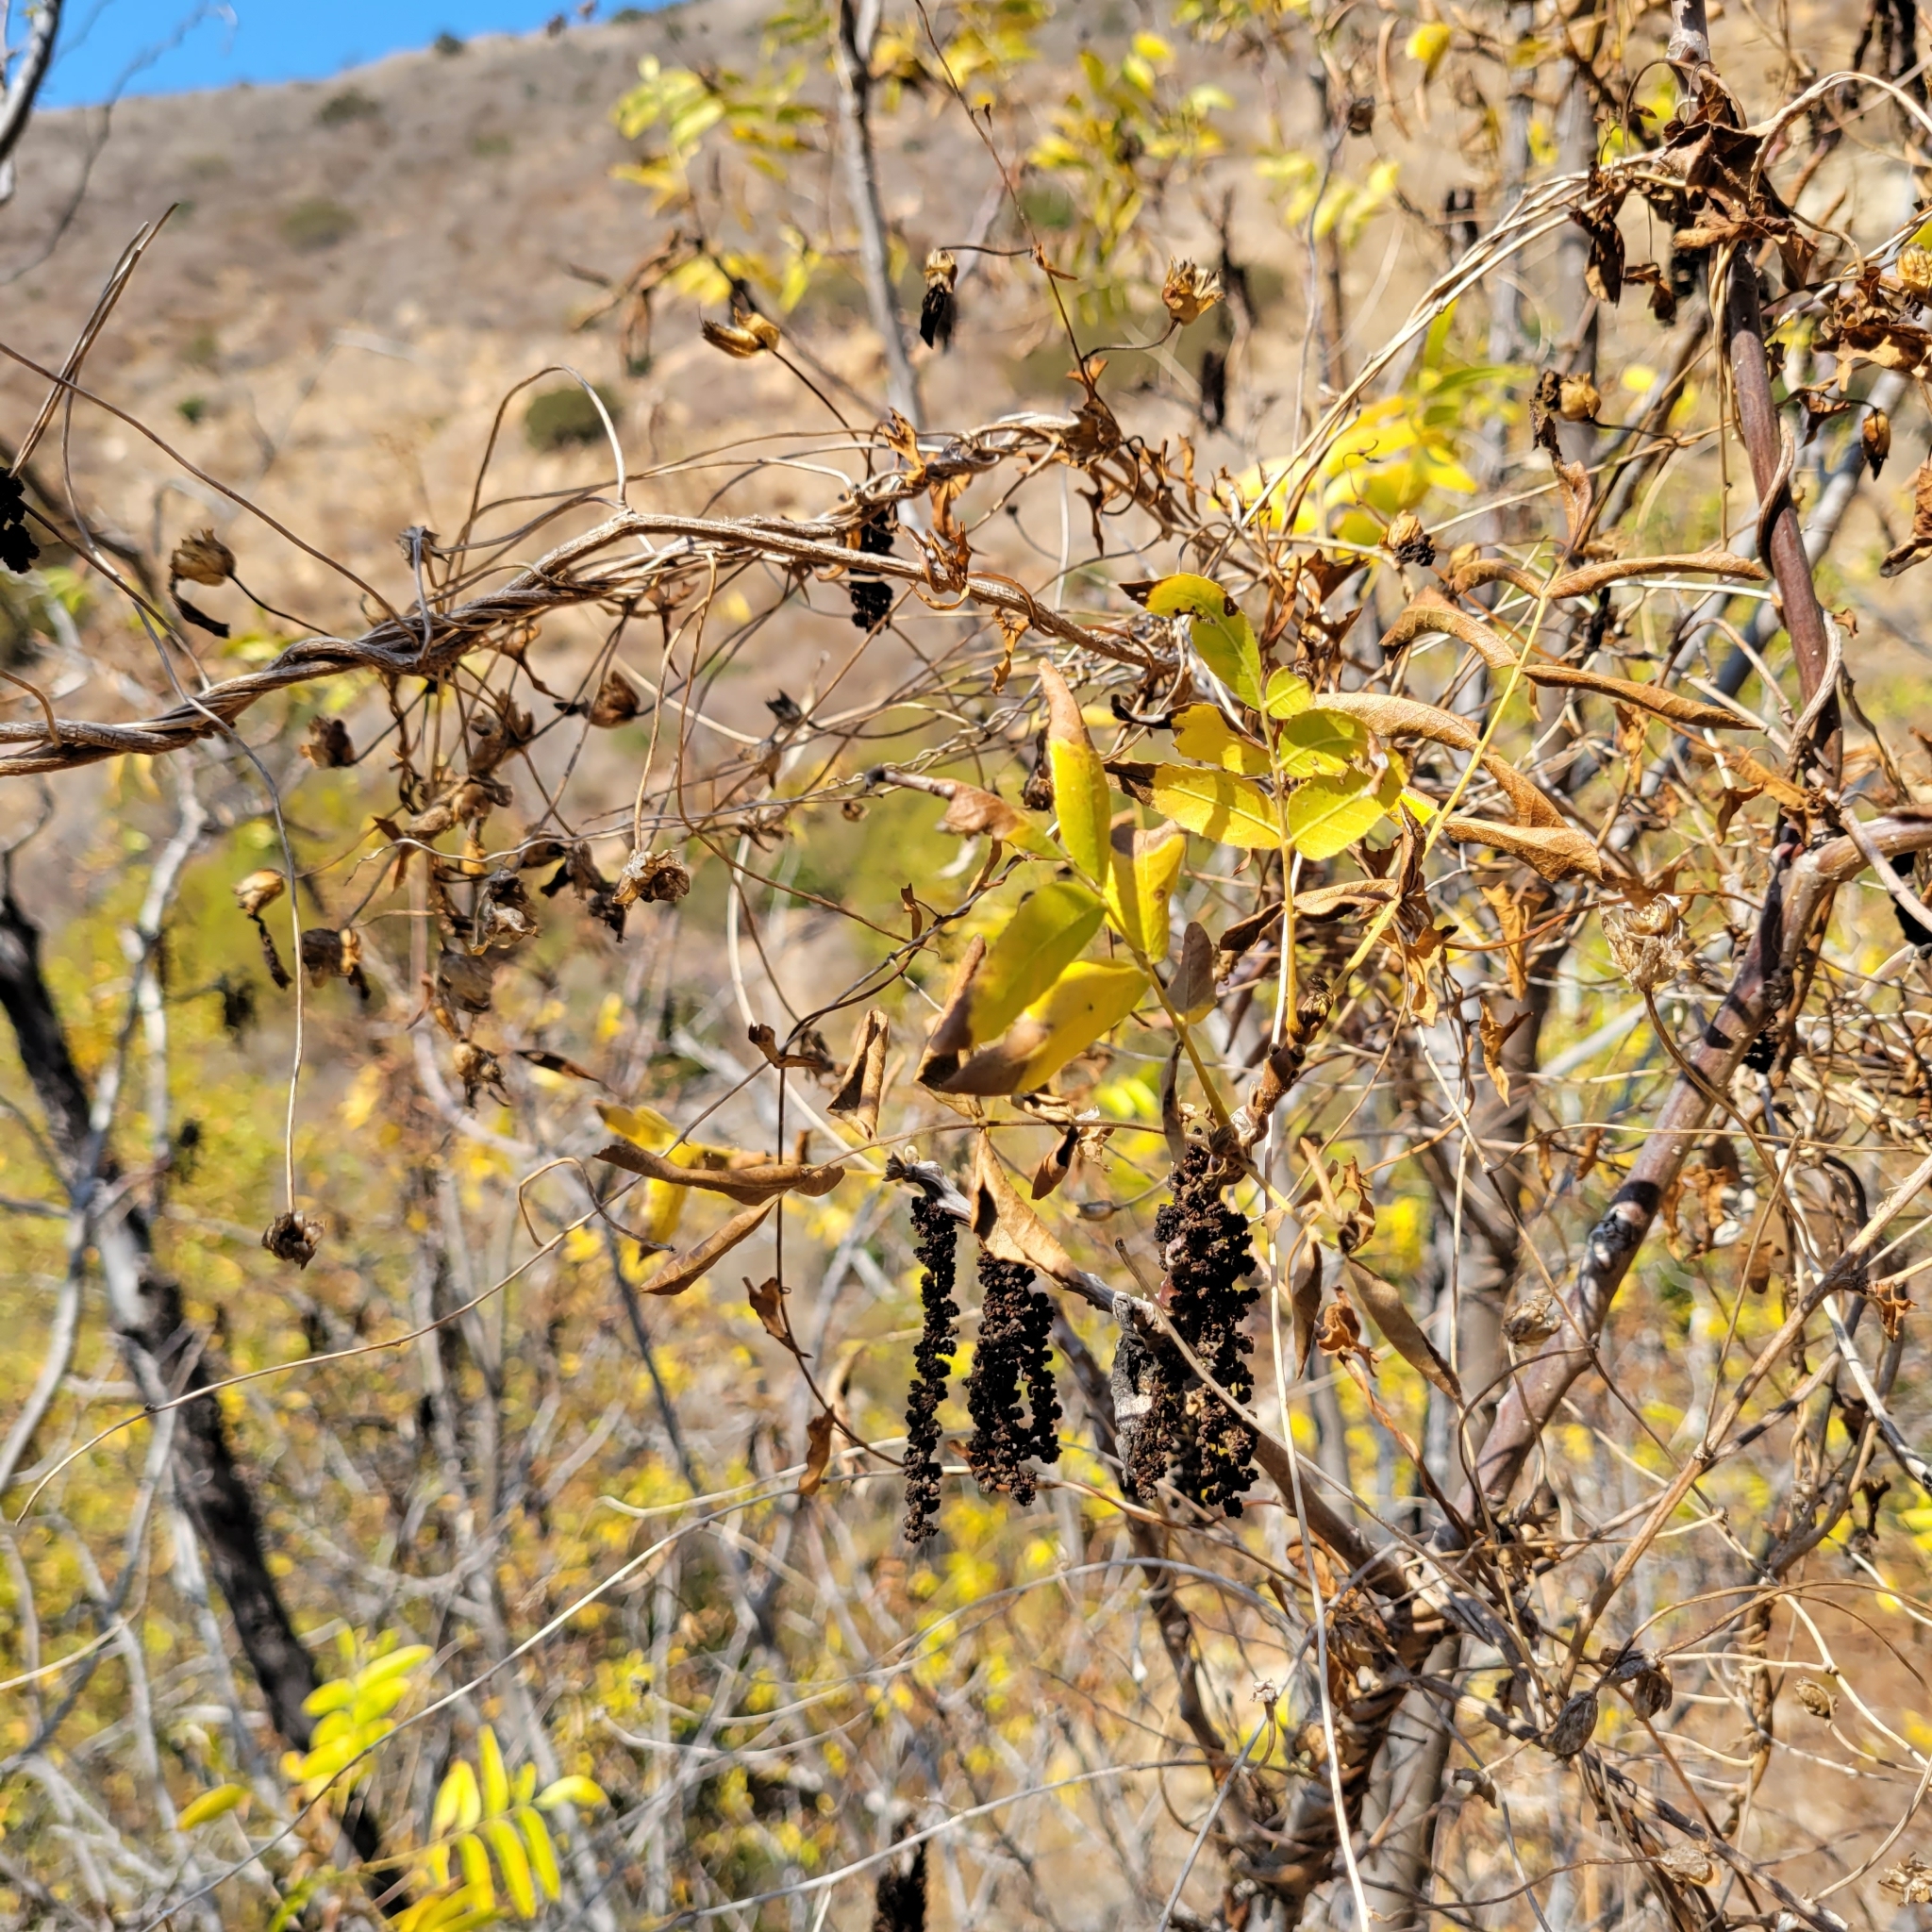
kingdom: Plantae
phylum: Tracheophyta
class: Magnoliopsida
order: Fagales
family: Juglandaceae
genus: Juglans
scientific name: Juglans californica
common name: Southern california black walnut
